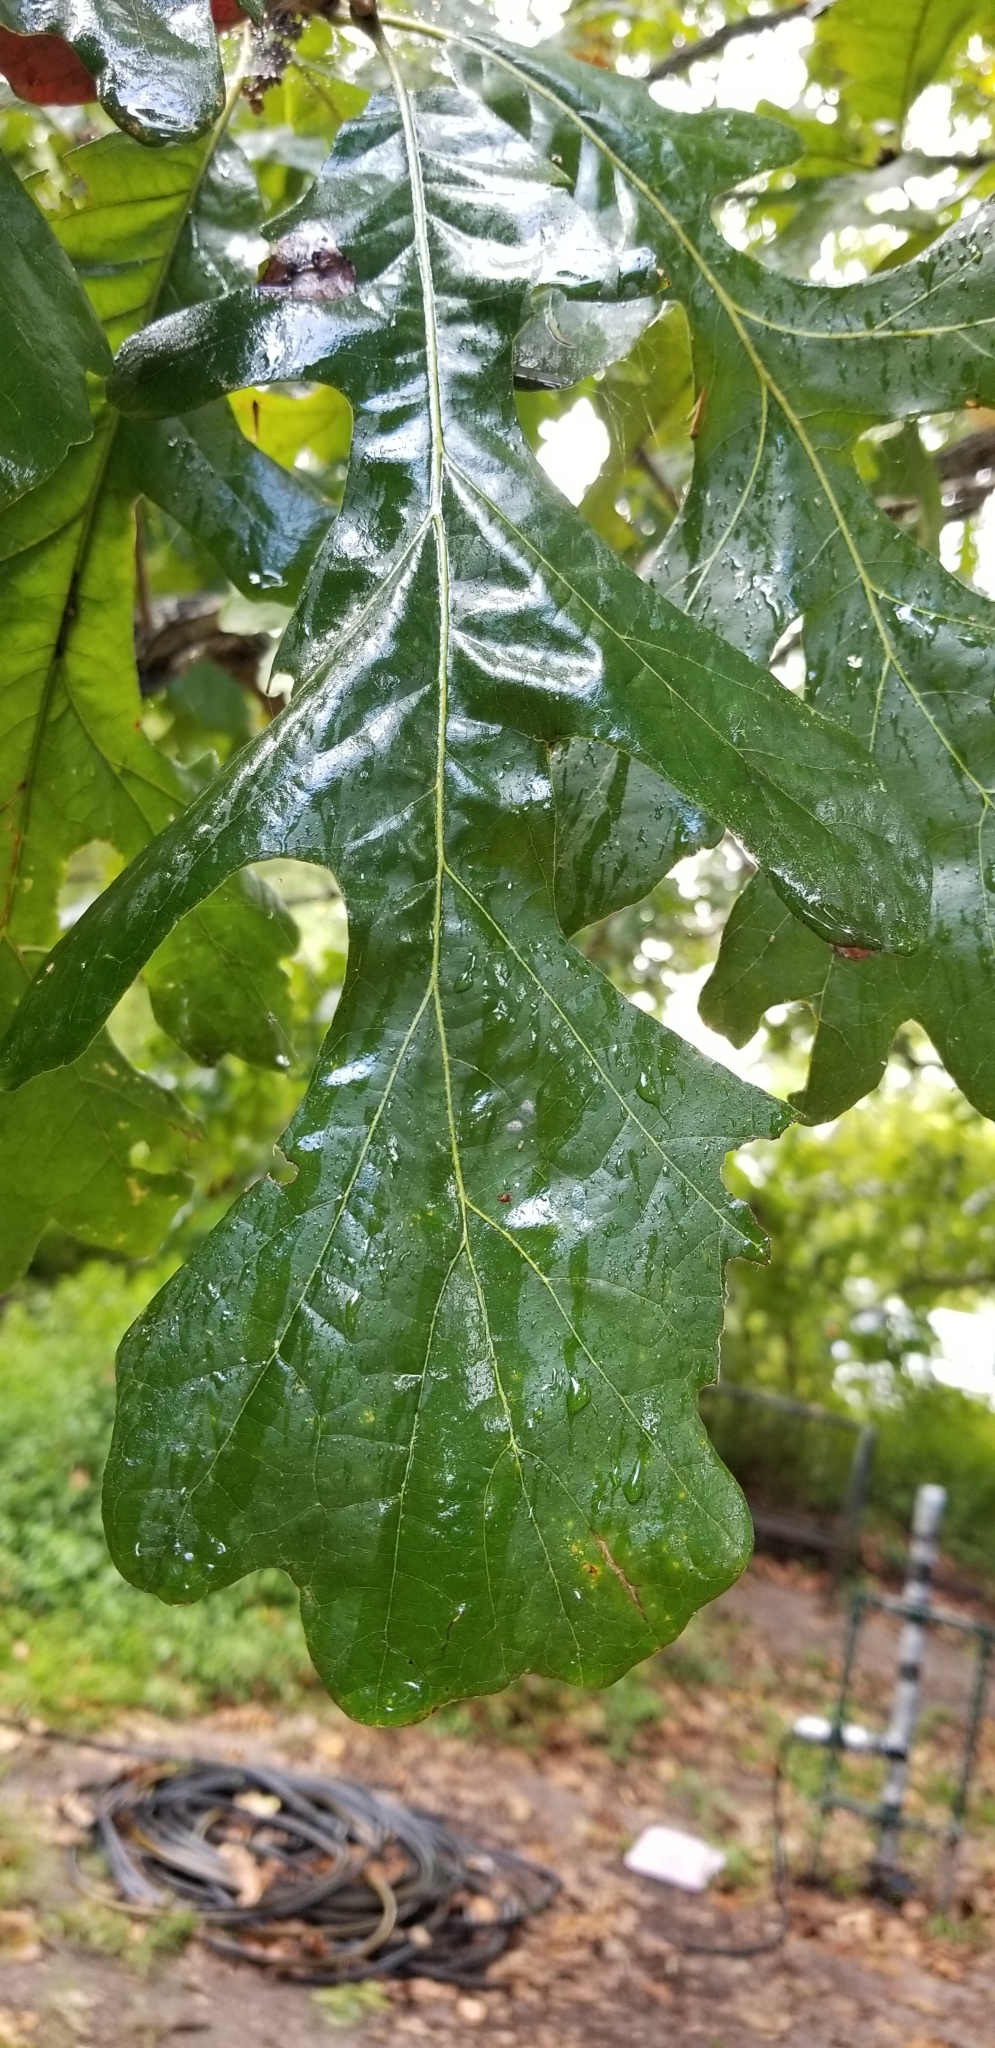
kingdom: Plantae
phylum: Tracheophyta
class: Magnoliopsida
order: Fagales
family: Fagaceae
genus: Quercus
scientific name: Quercus macrocarpa
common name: Bur oak
